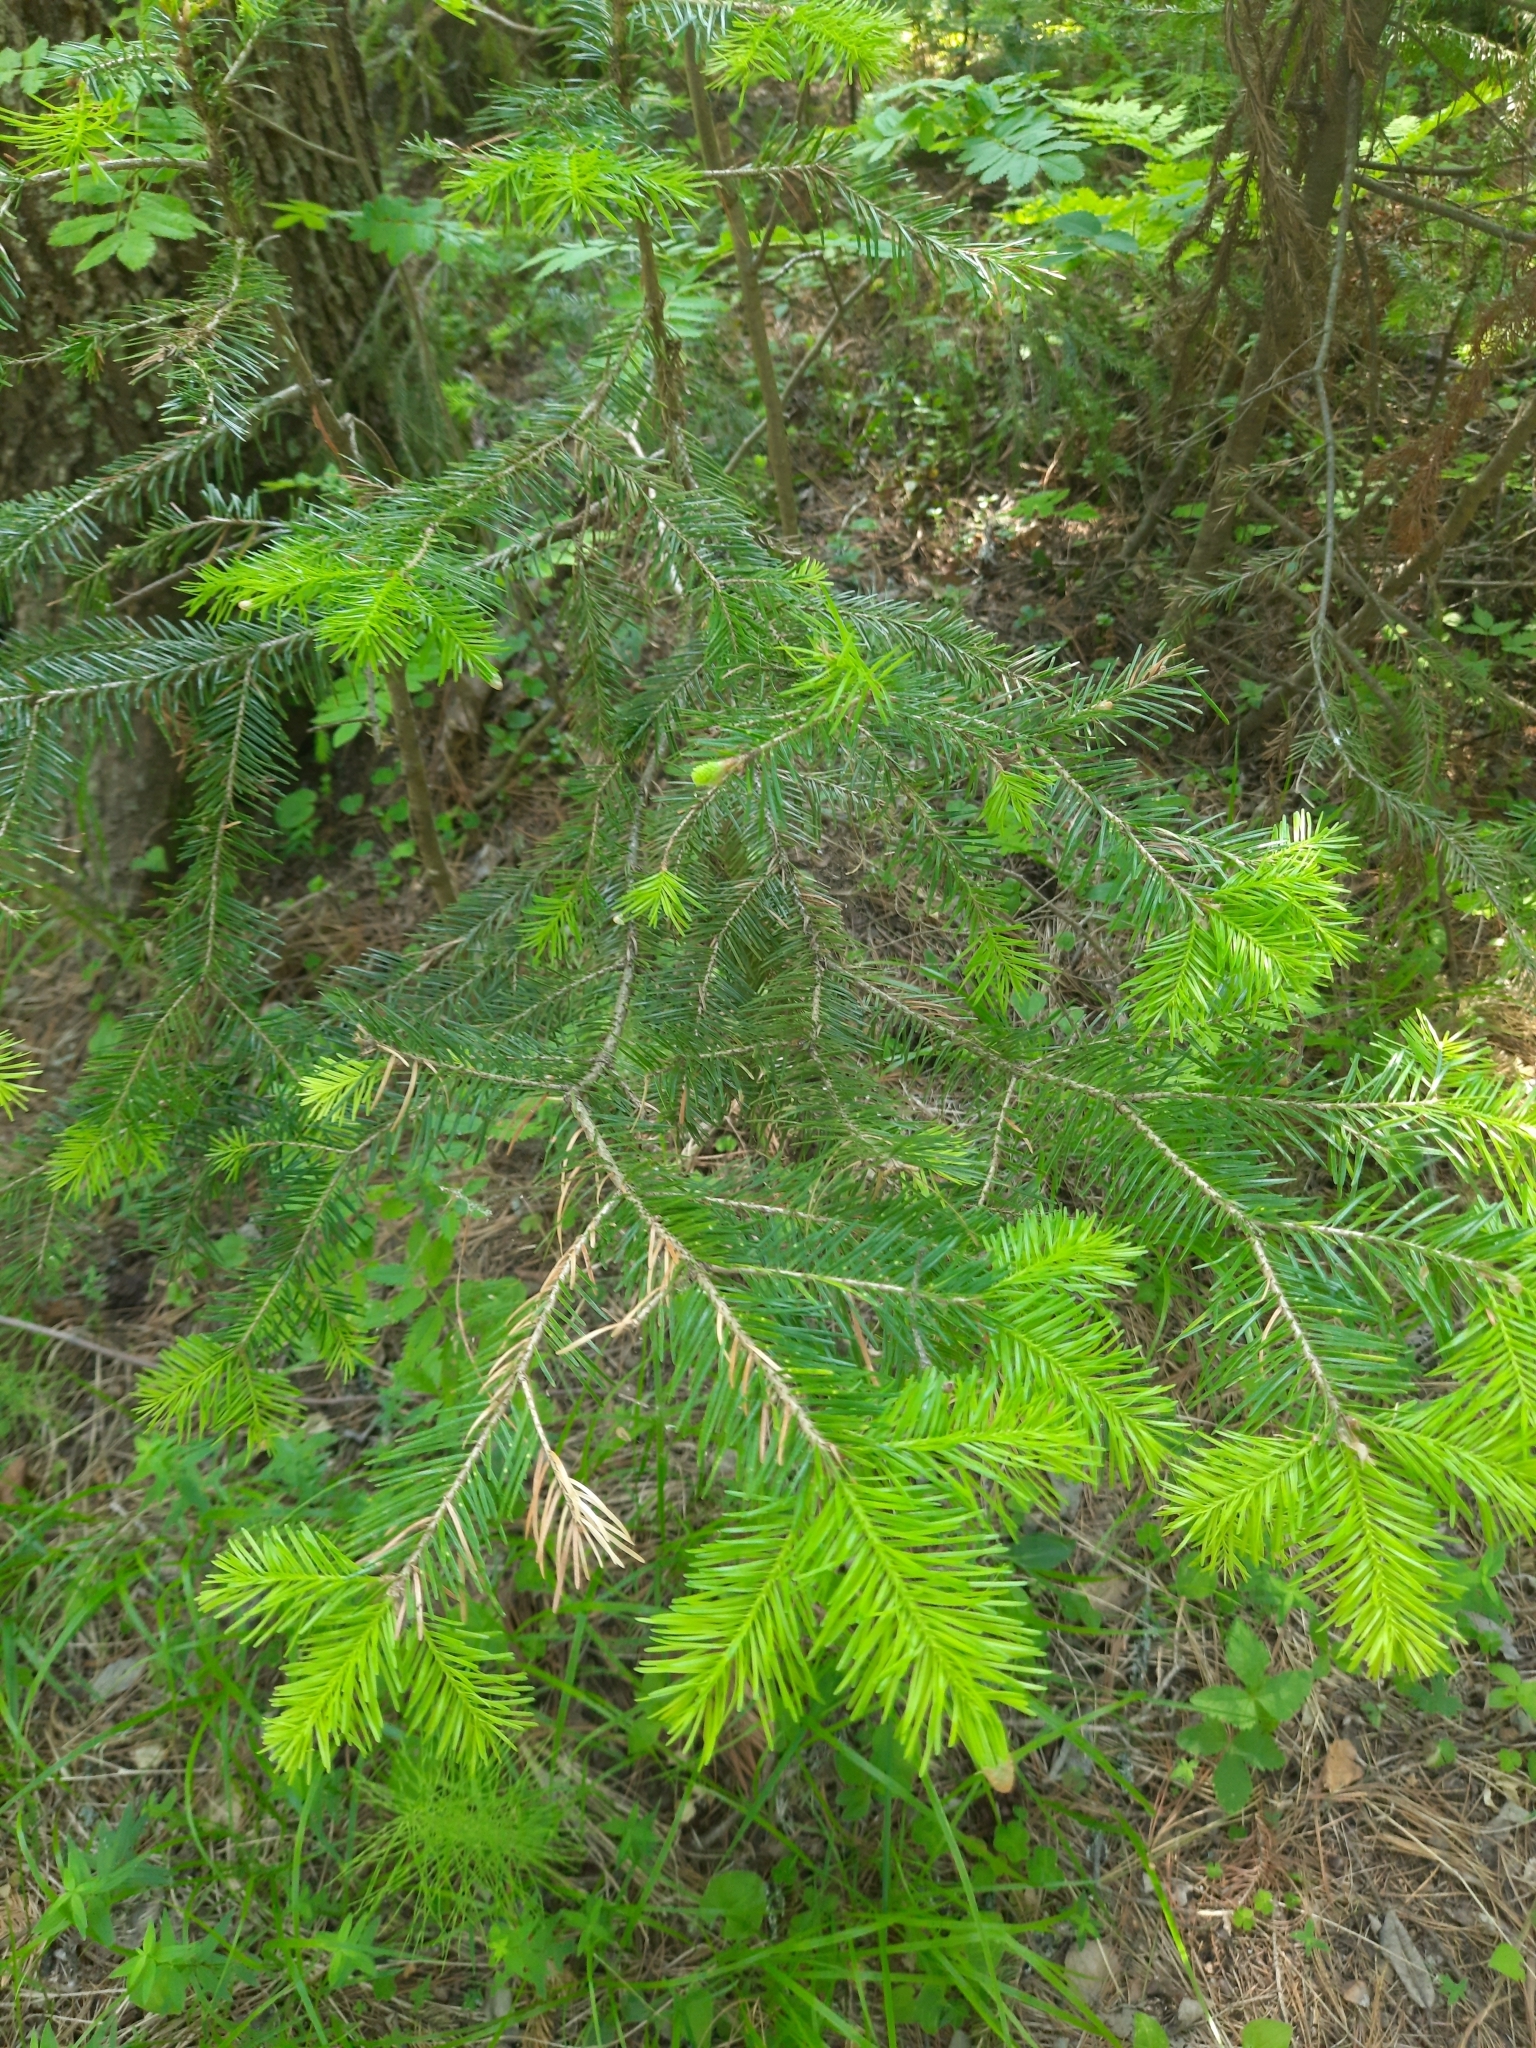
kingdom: Plantae
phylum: Tracheophyta
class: Pinopsida
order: Pinales
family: Pinaceae
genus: Abies
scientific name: Abies sibirica
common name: Siberian fir
